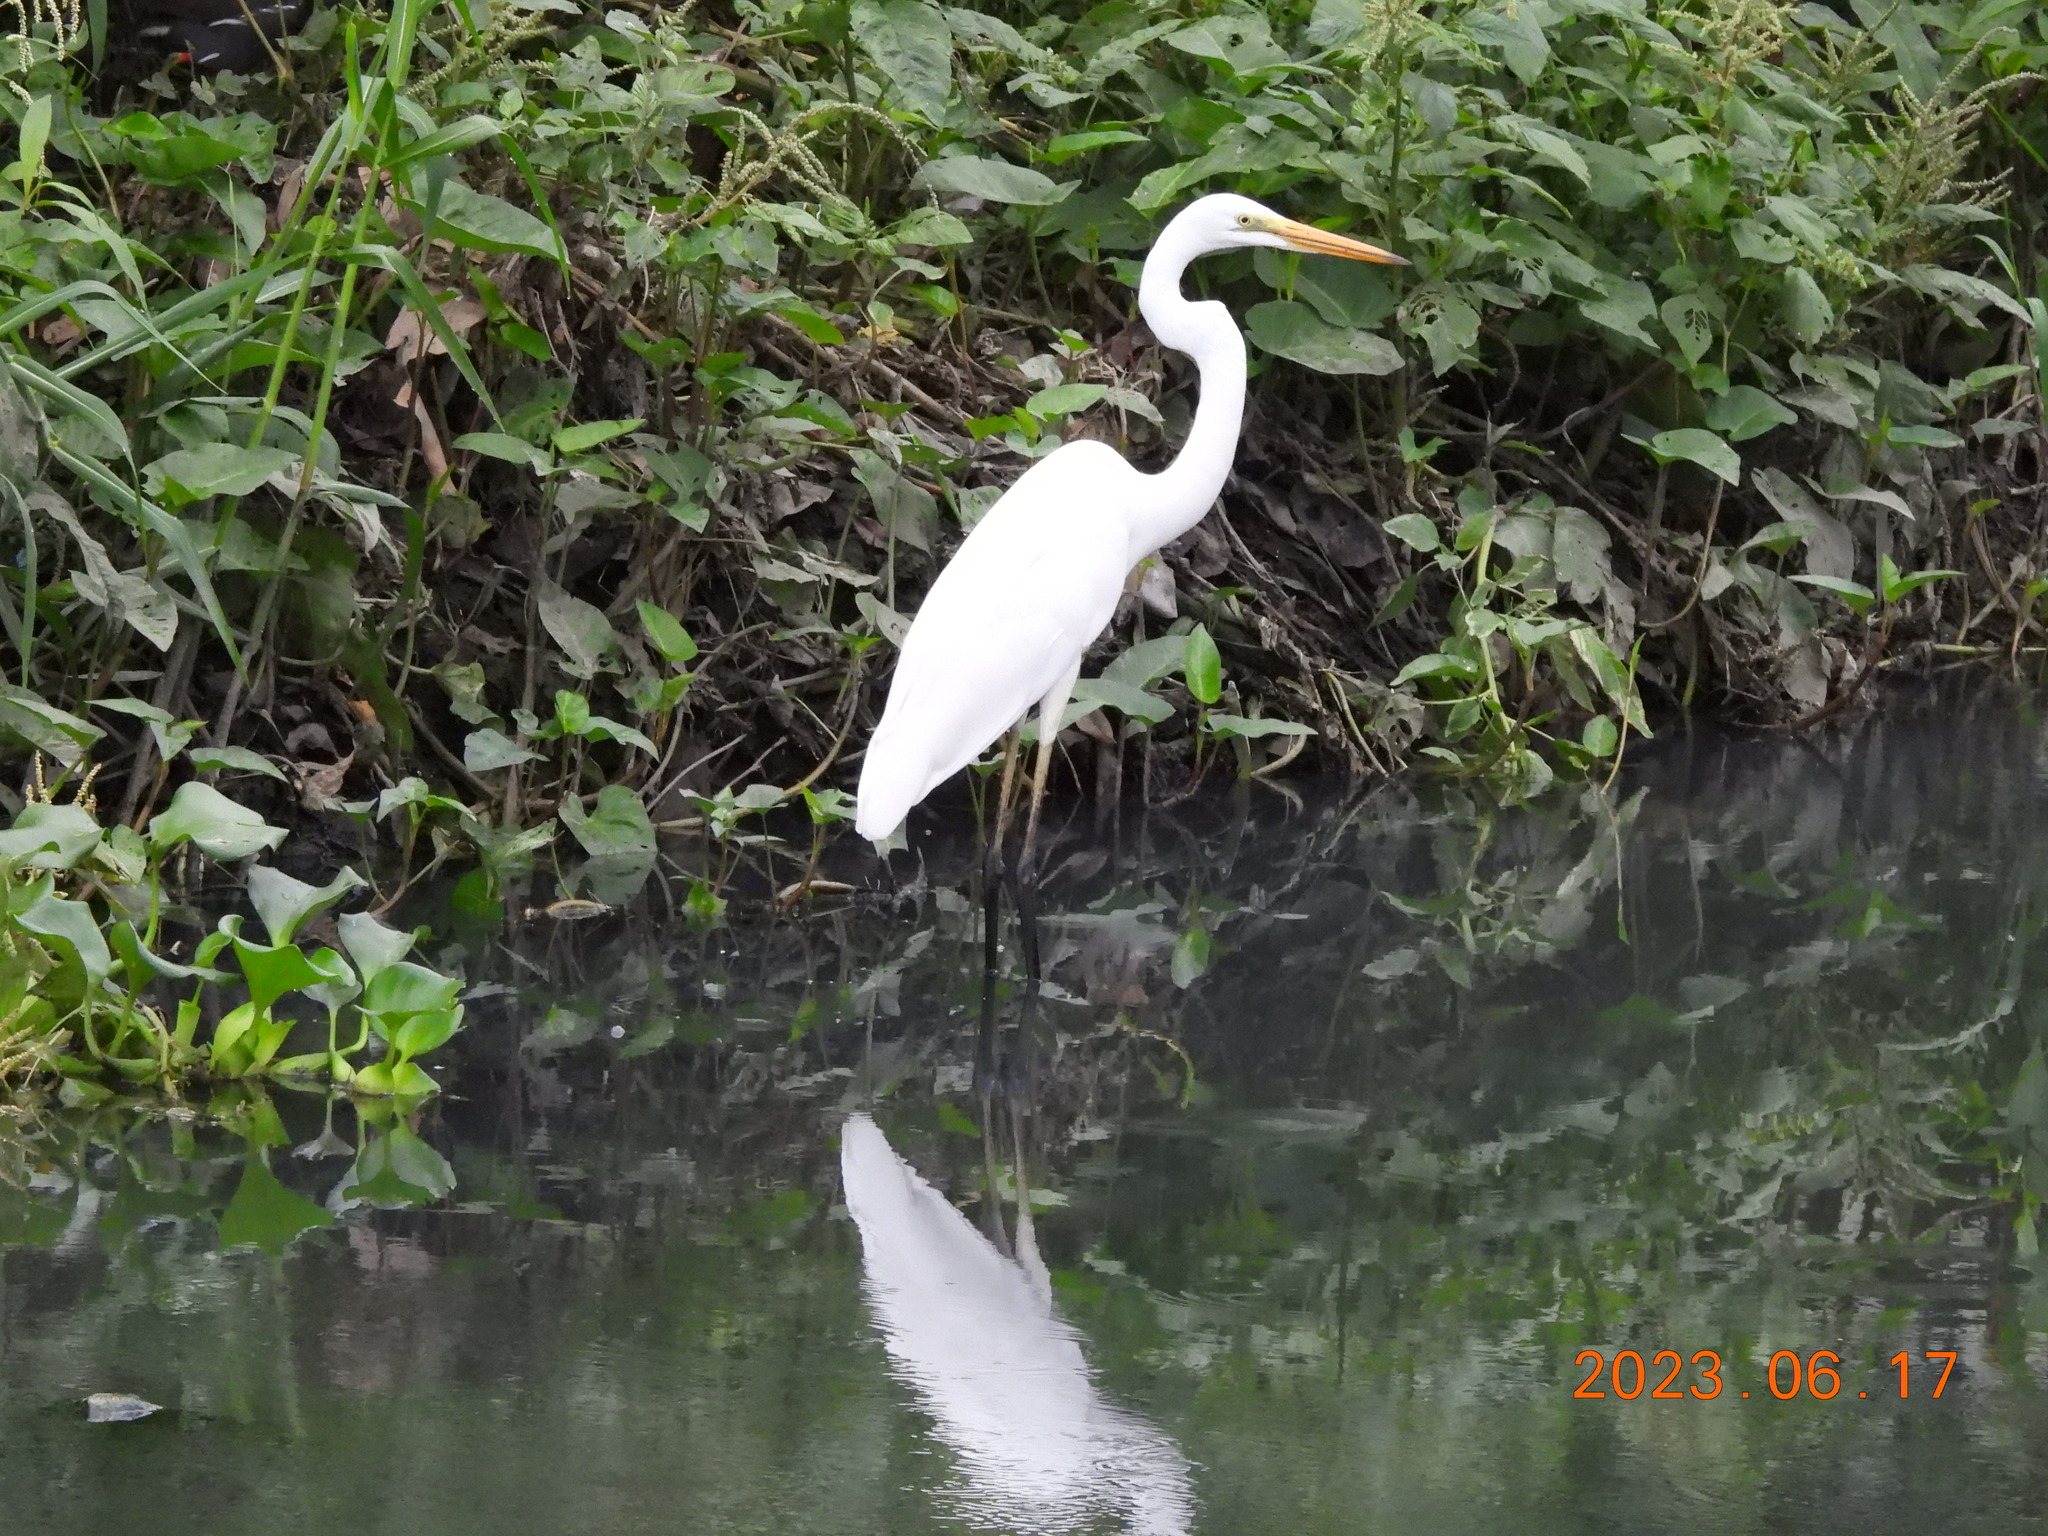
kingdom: Animalia
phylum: Chordata
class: Aves
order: Pelecaniformes
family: Ardeidae
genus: Ardea
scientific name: Ardea alba
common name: Great egret
